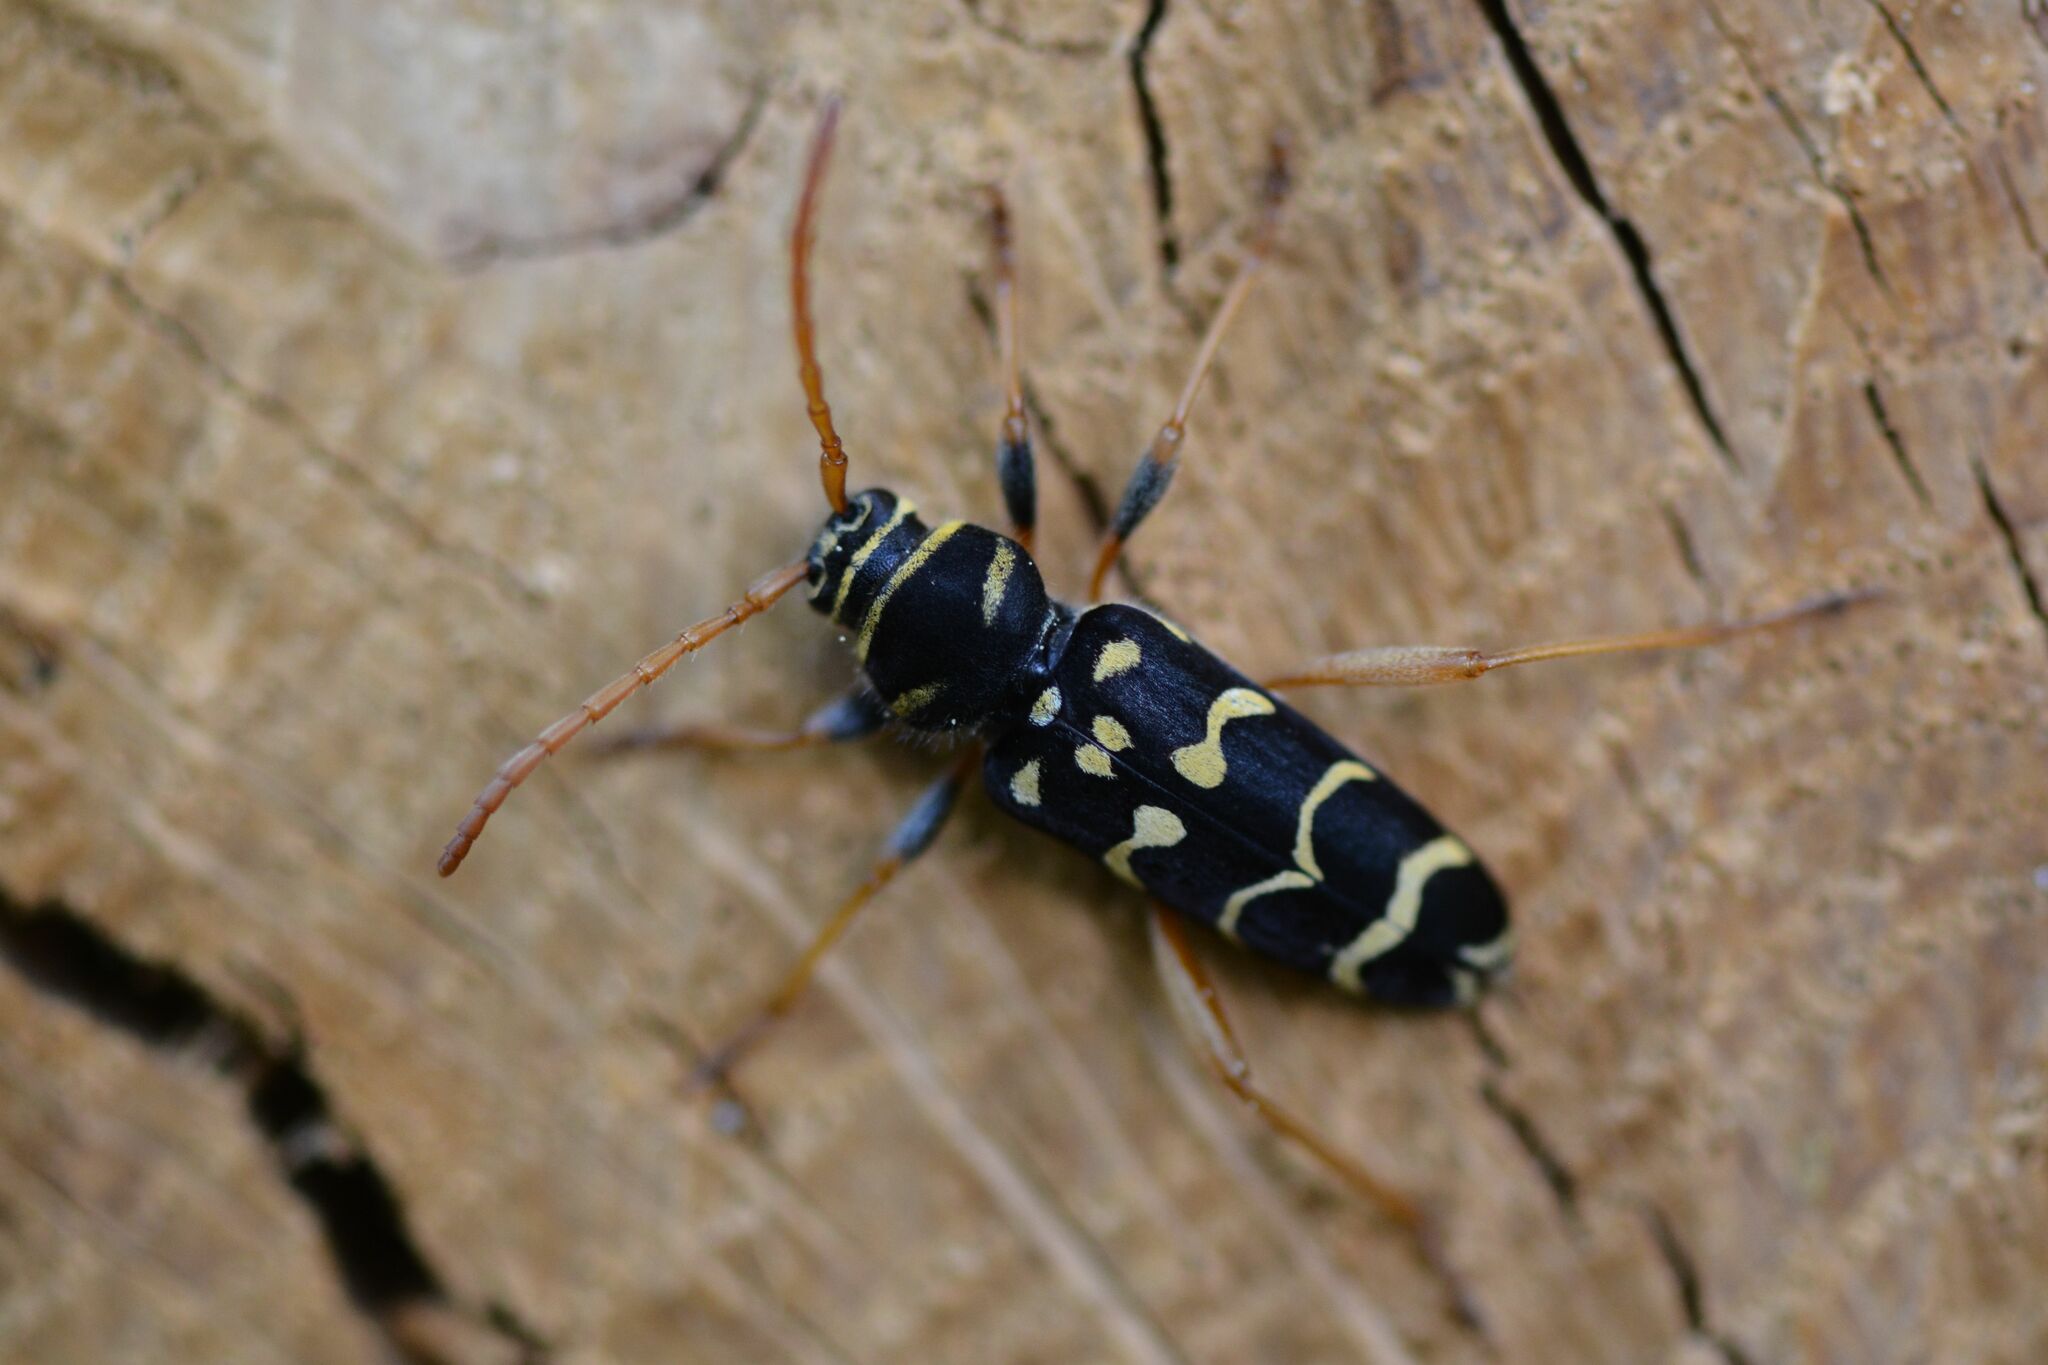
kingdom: Animalia
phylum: Arthropoda
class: Insecta
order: Coleoptera
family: Cerambycidae
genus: Plagionotus
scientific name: Plagionotus arcuatus
